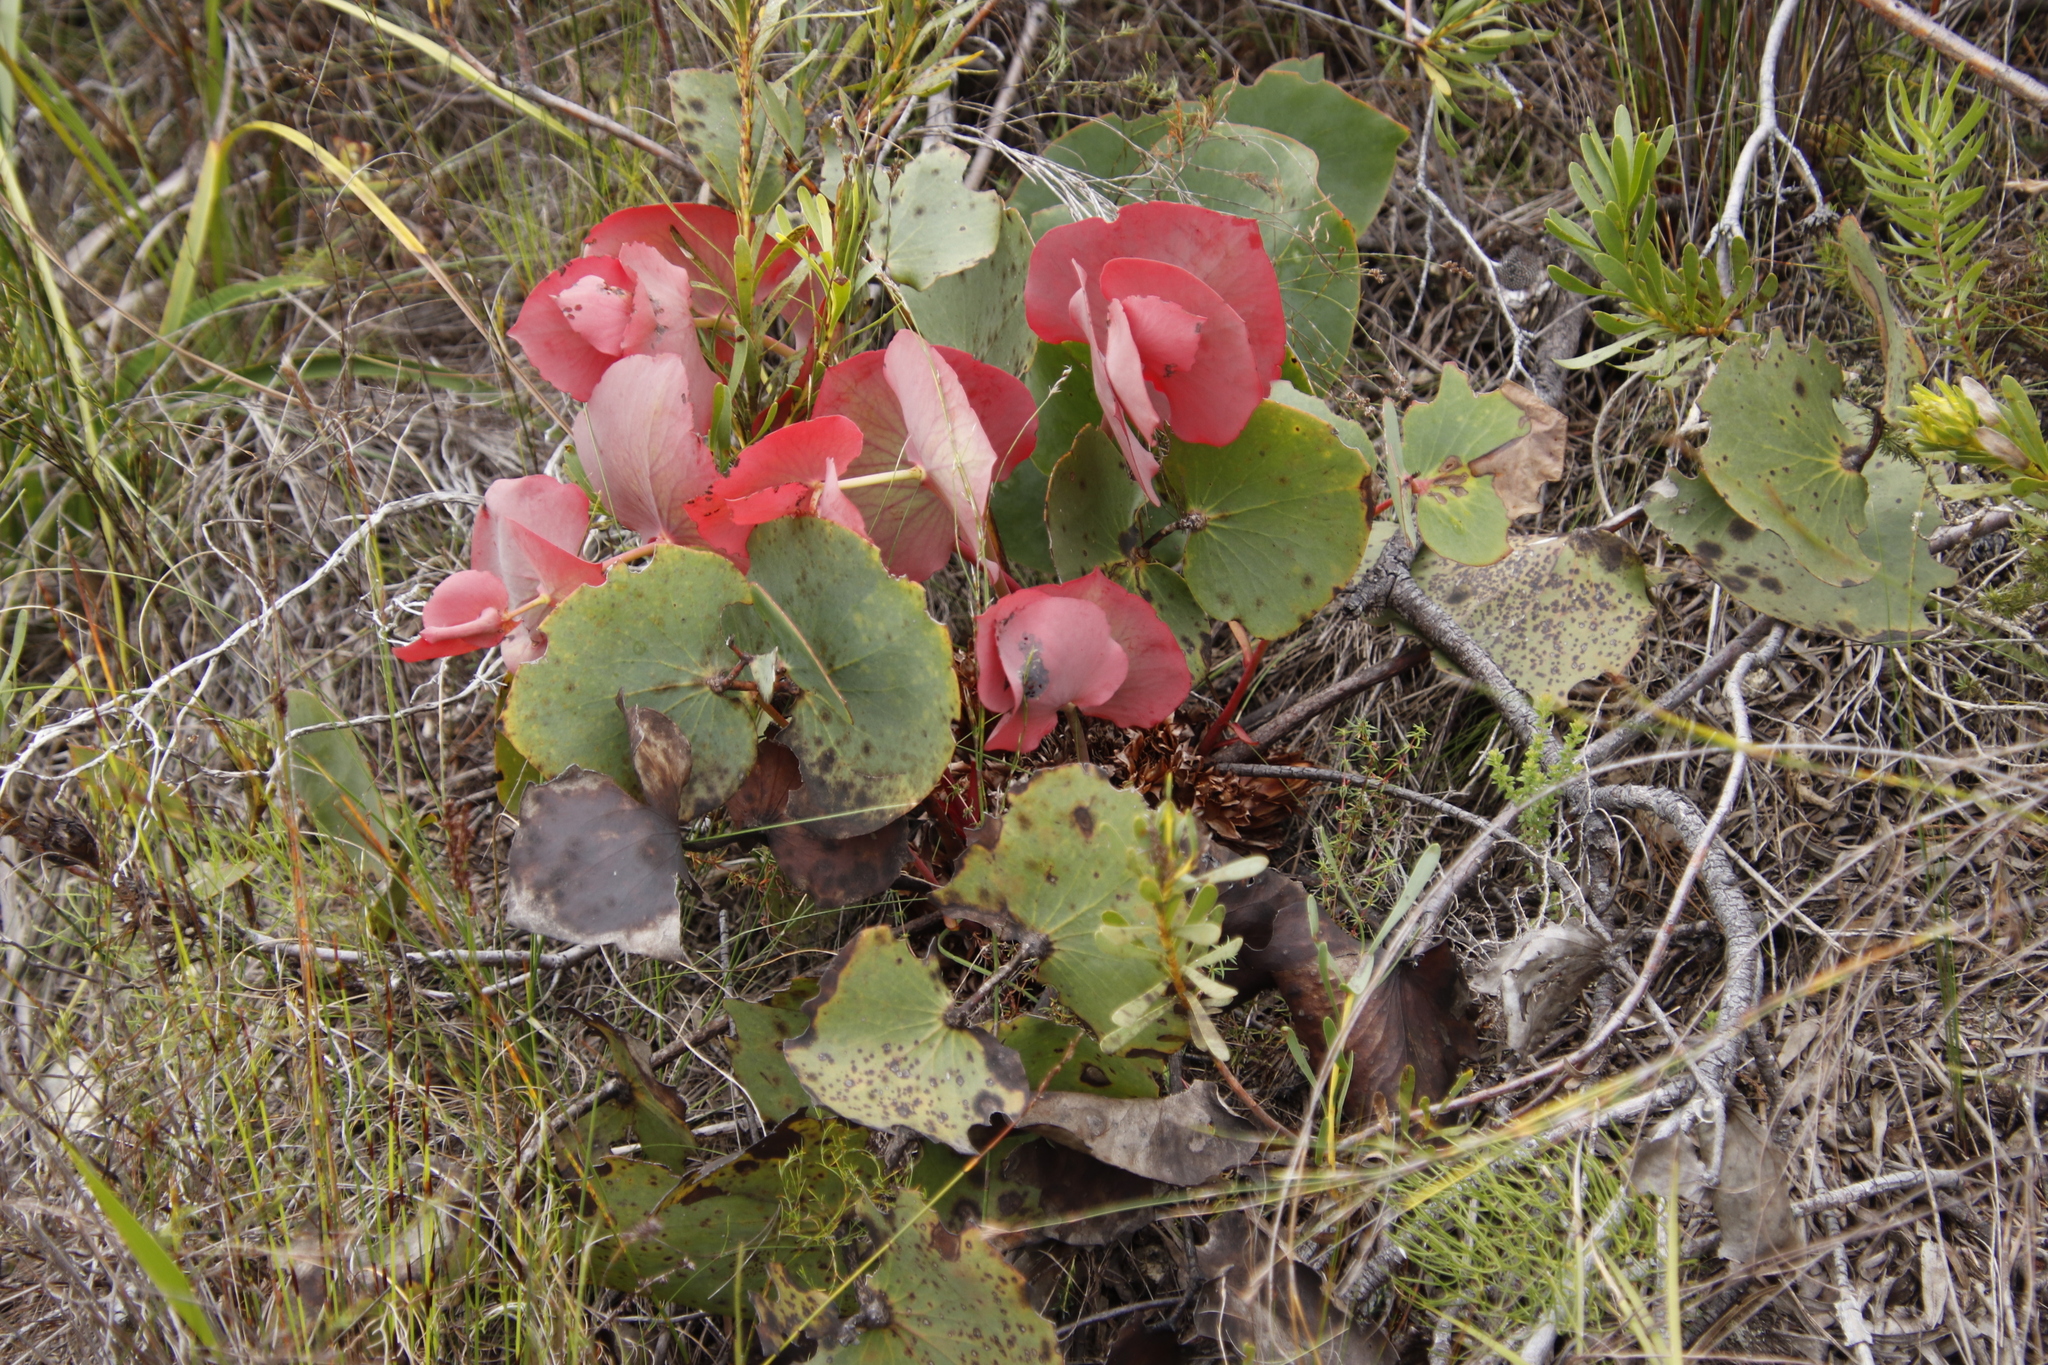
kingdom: Plantae
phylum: Tracheophyta
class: Magnoliopsida
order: Proteales
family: Proteaceae
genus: Protea
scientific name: Protea cordata
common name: Heart-leaf sugarbush
